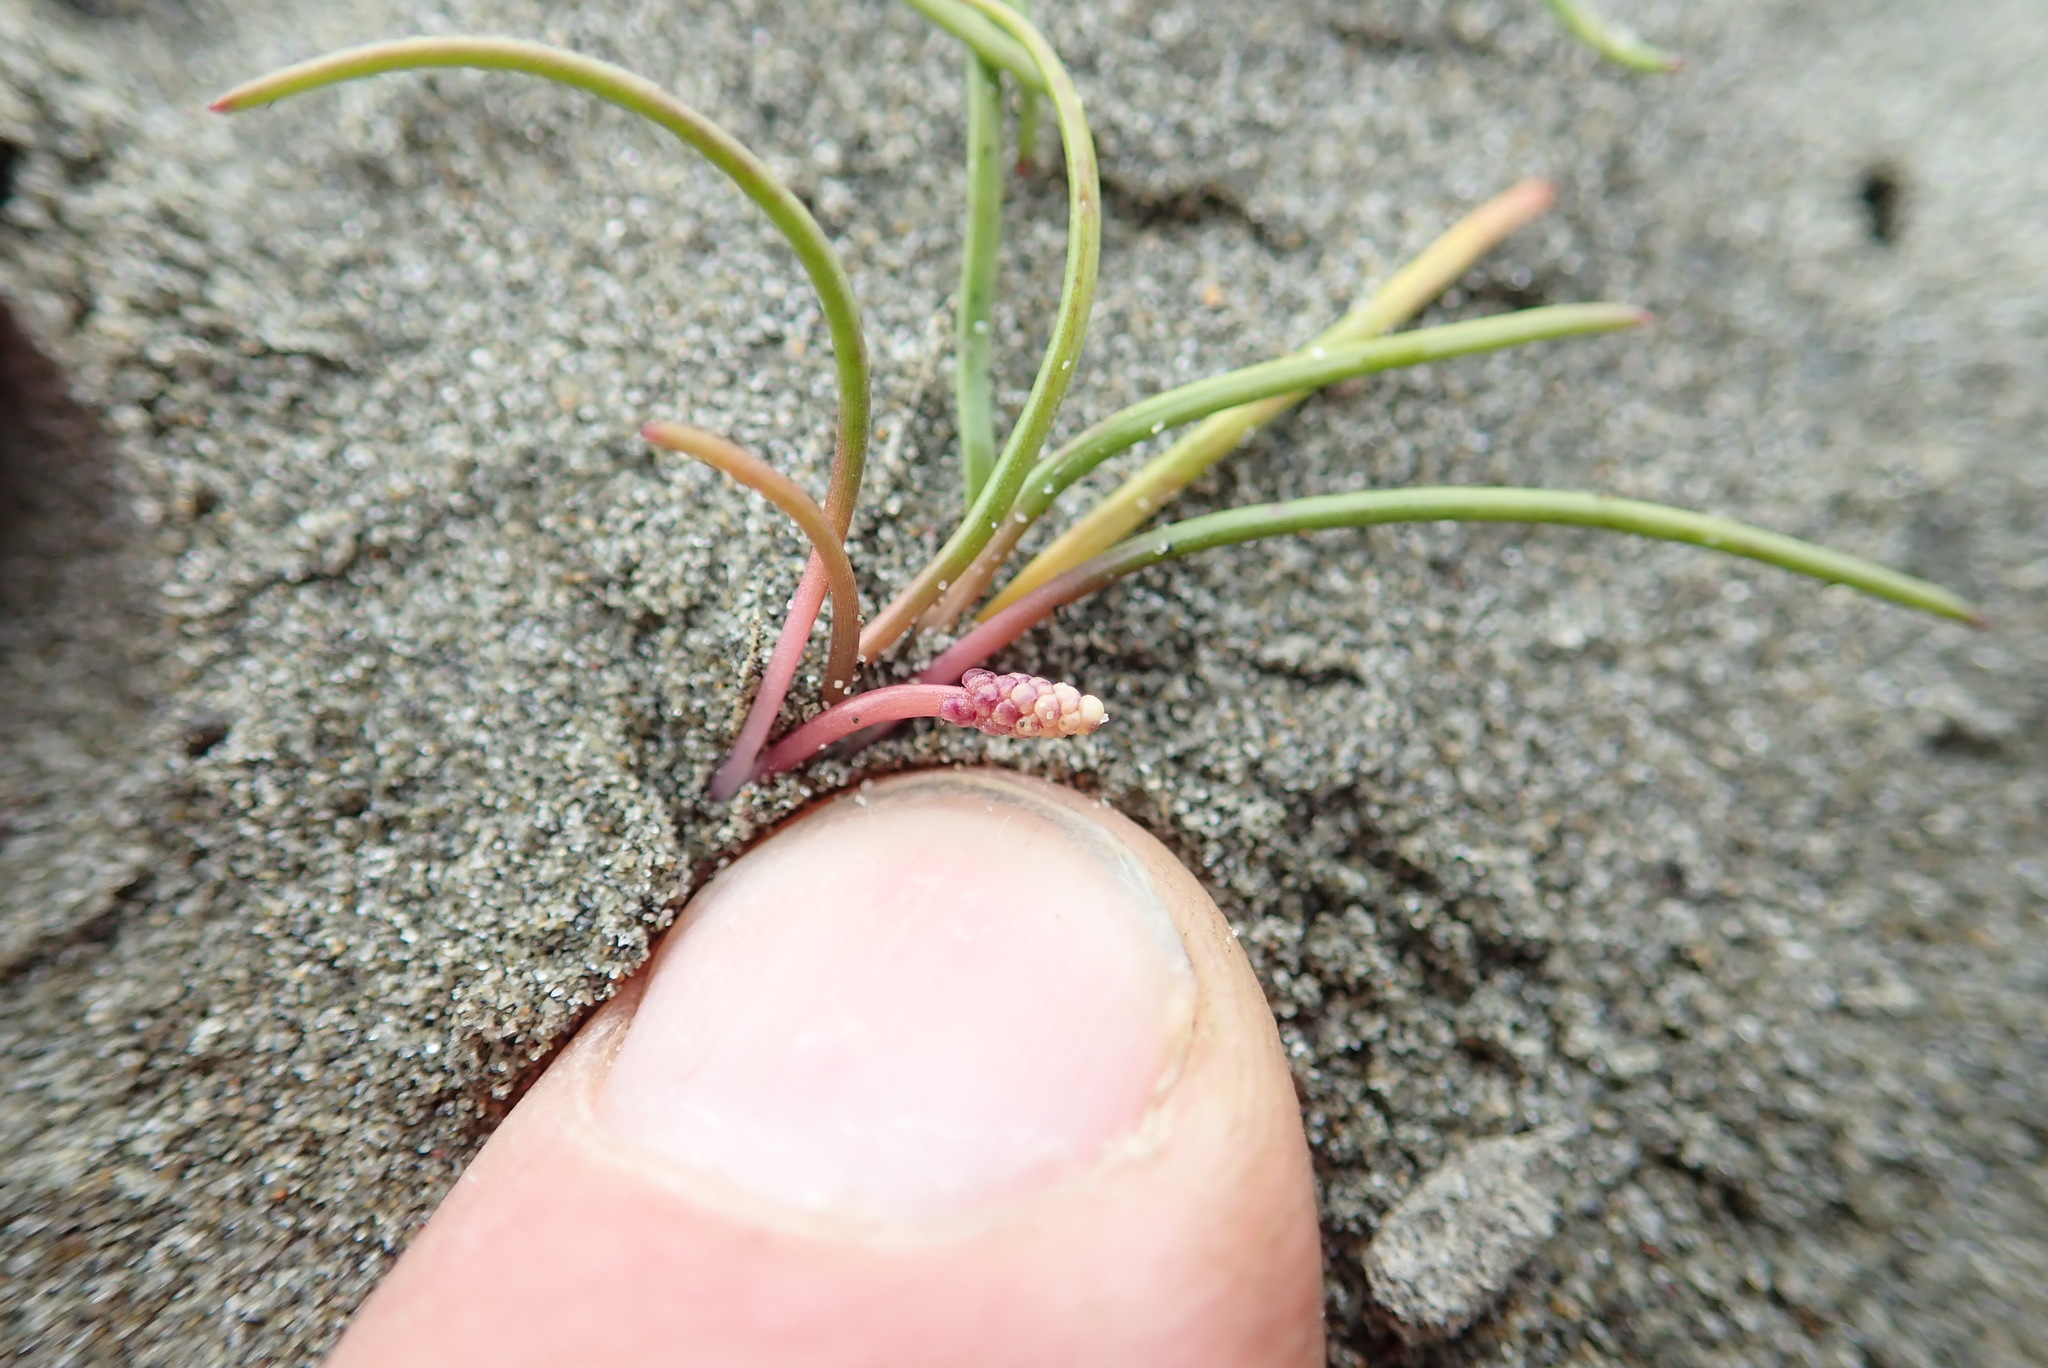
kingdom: Plantae
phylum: Tracheophyta
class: Liliopsida
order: Alismatales
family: Juncaginaceae
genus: Triglochin
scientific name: Triglochin striata
